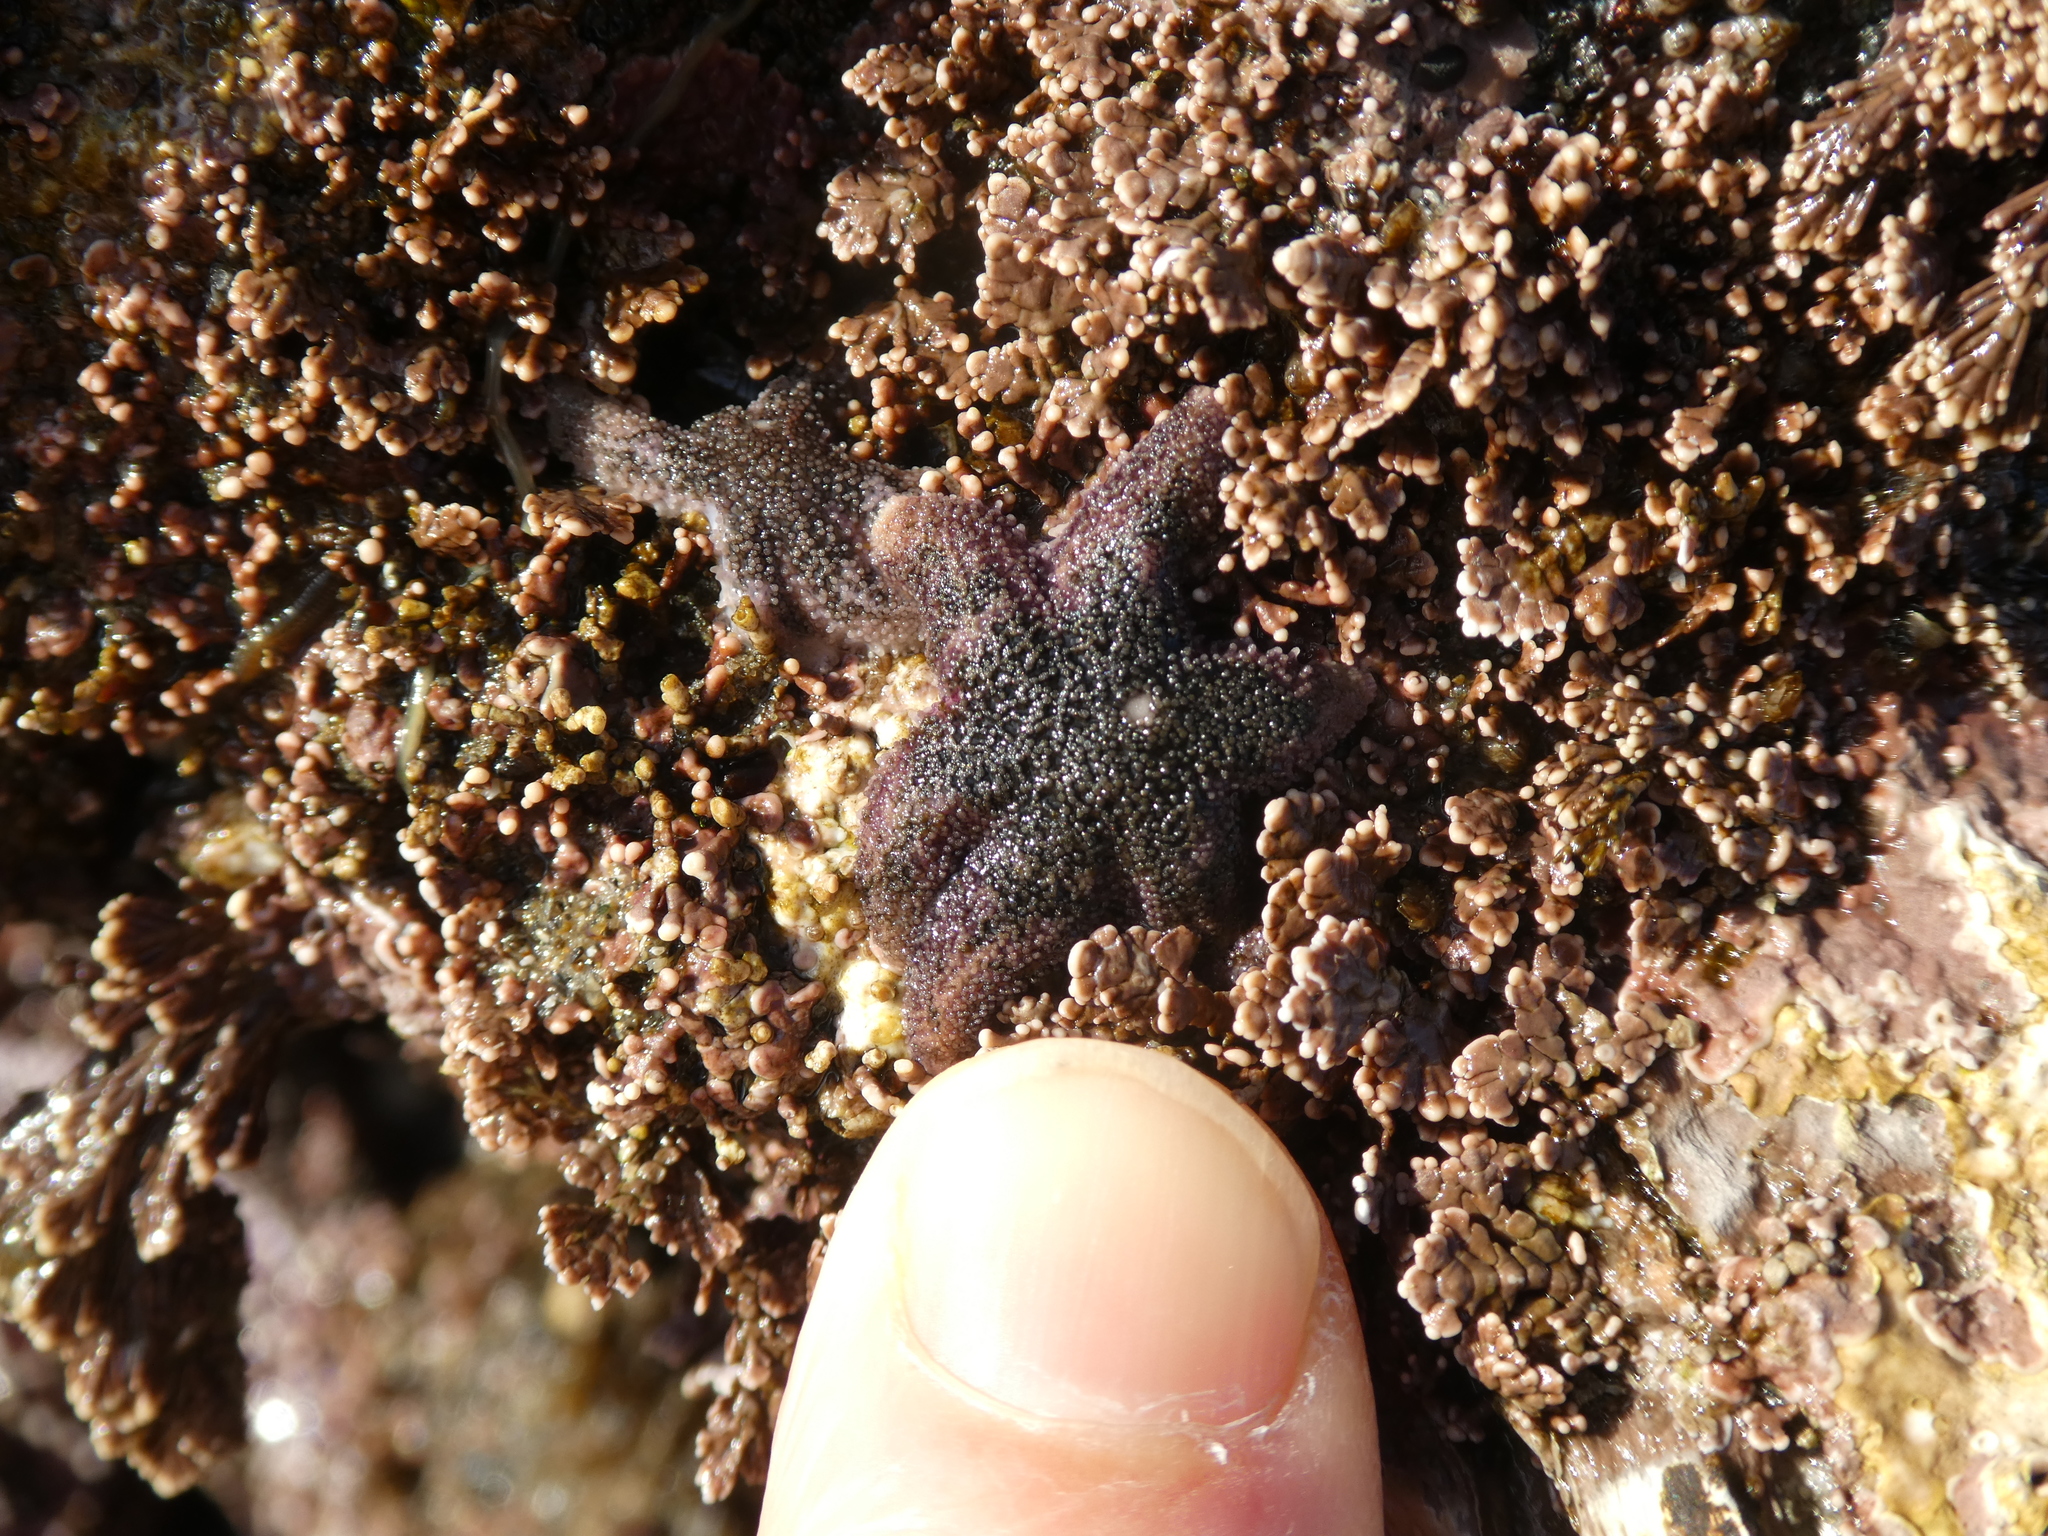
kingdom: Animalia
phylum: Echinodermata
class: Asteroidea
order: Forcipulatida
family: Asteriidae
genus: Leptasterias
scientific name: Leptasterias hexactis
